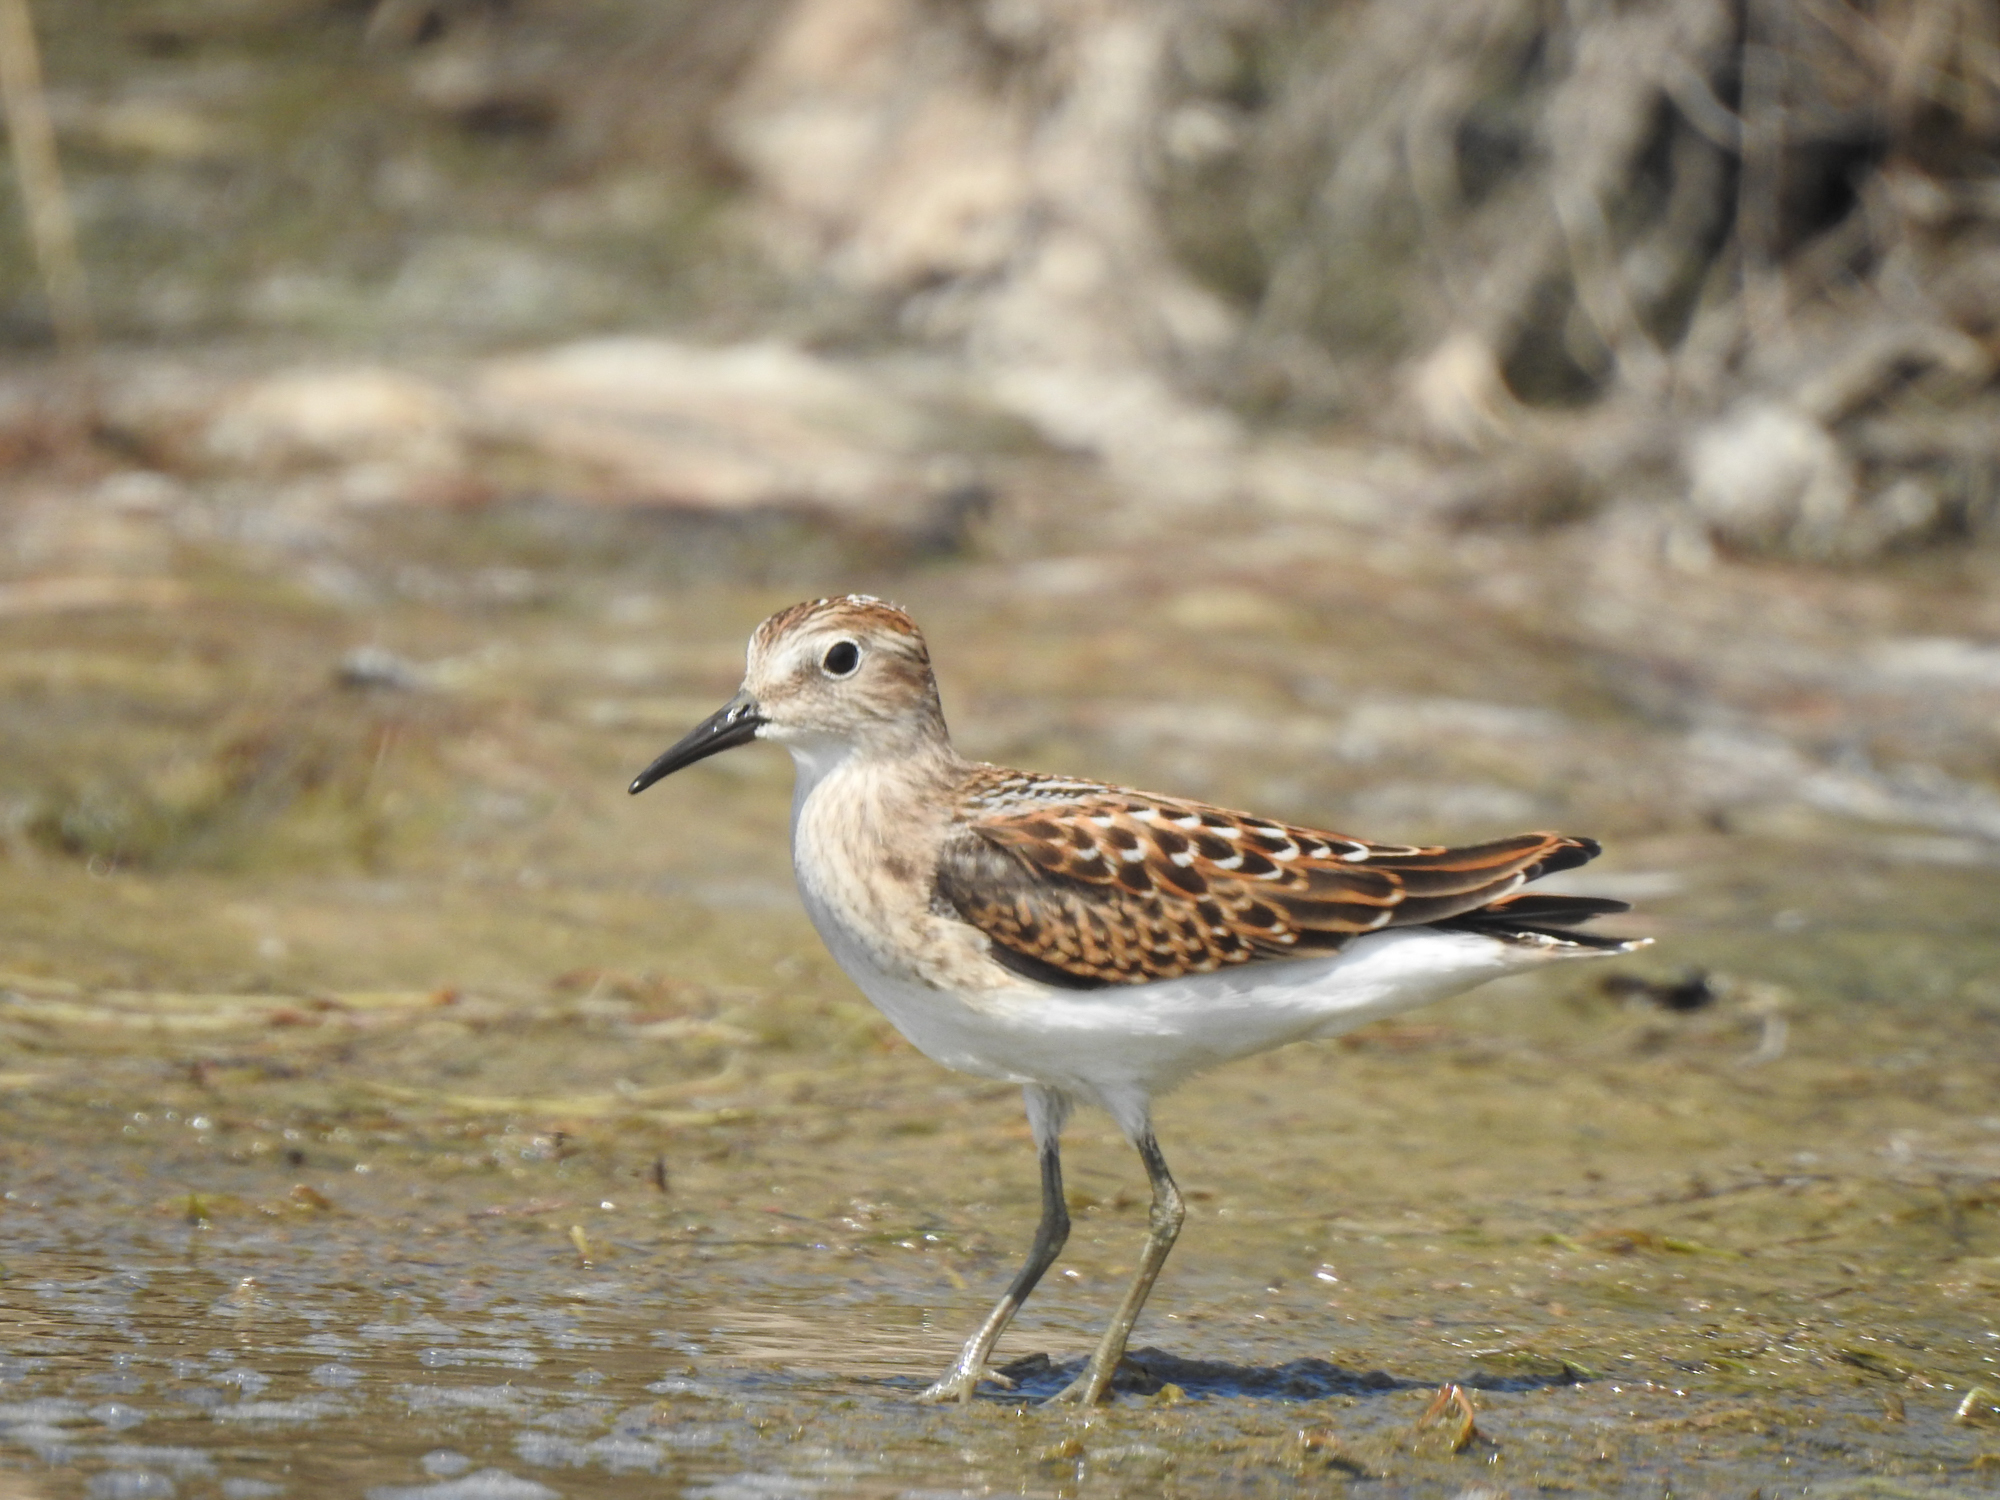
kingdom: Animalia
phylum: Chordata
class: Aves
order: Charadriiformes
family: Scolopacidae
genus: Calidris
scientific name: Calidris minutilla
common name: Least sandpiper
